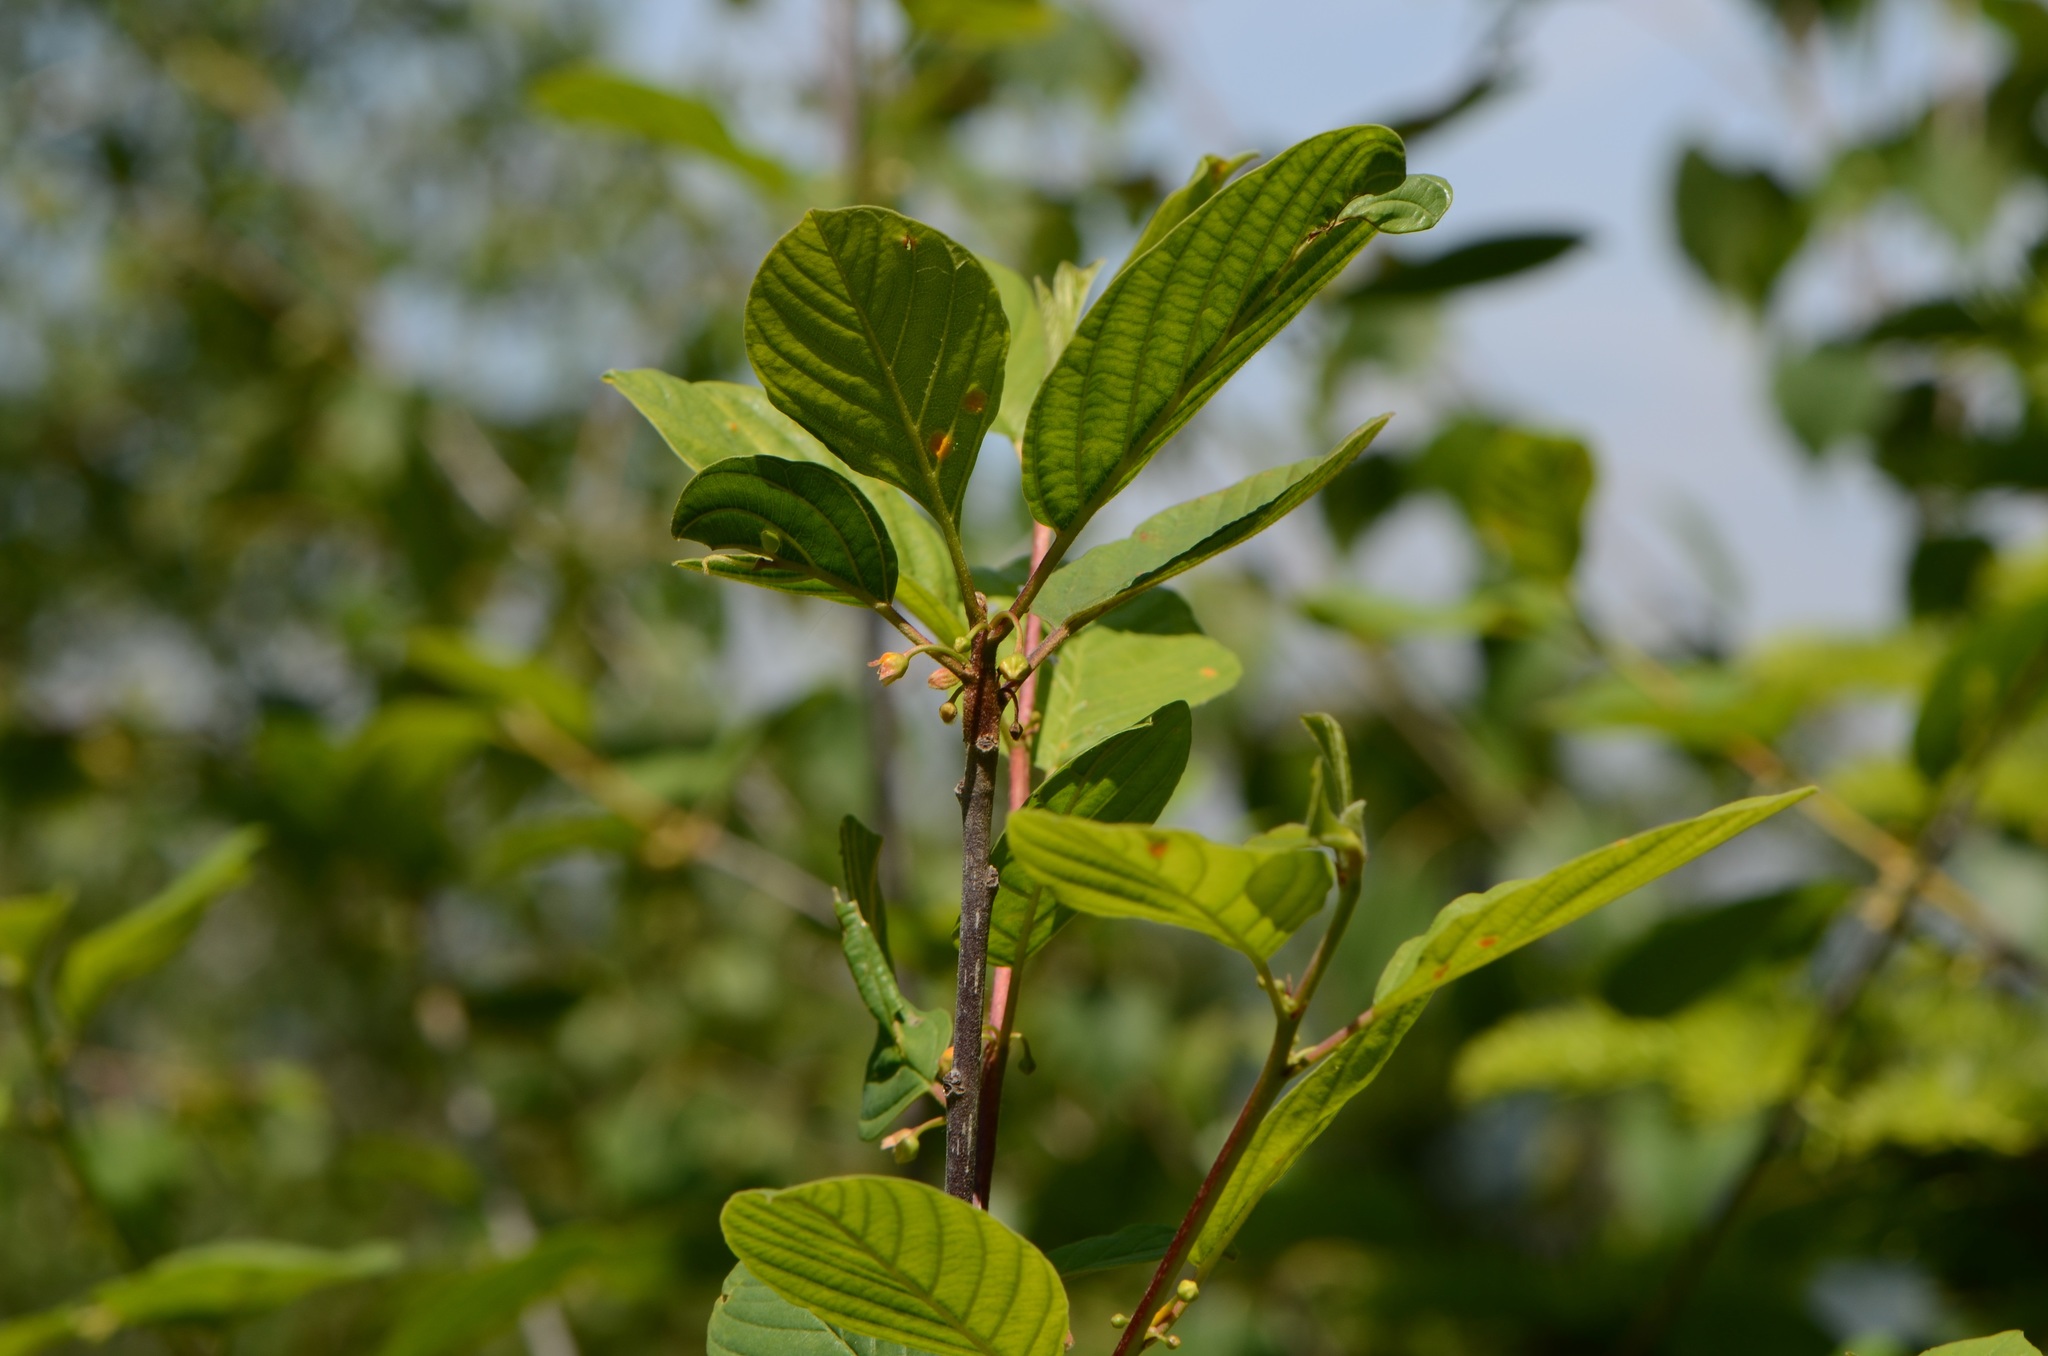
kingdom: Plantae
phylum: Tracheophyta
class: Magnoliopsida
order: Rosales
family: Rhamnaceae
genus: Frangula
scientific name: Frangula alnus
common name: Alder buckthorn
